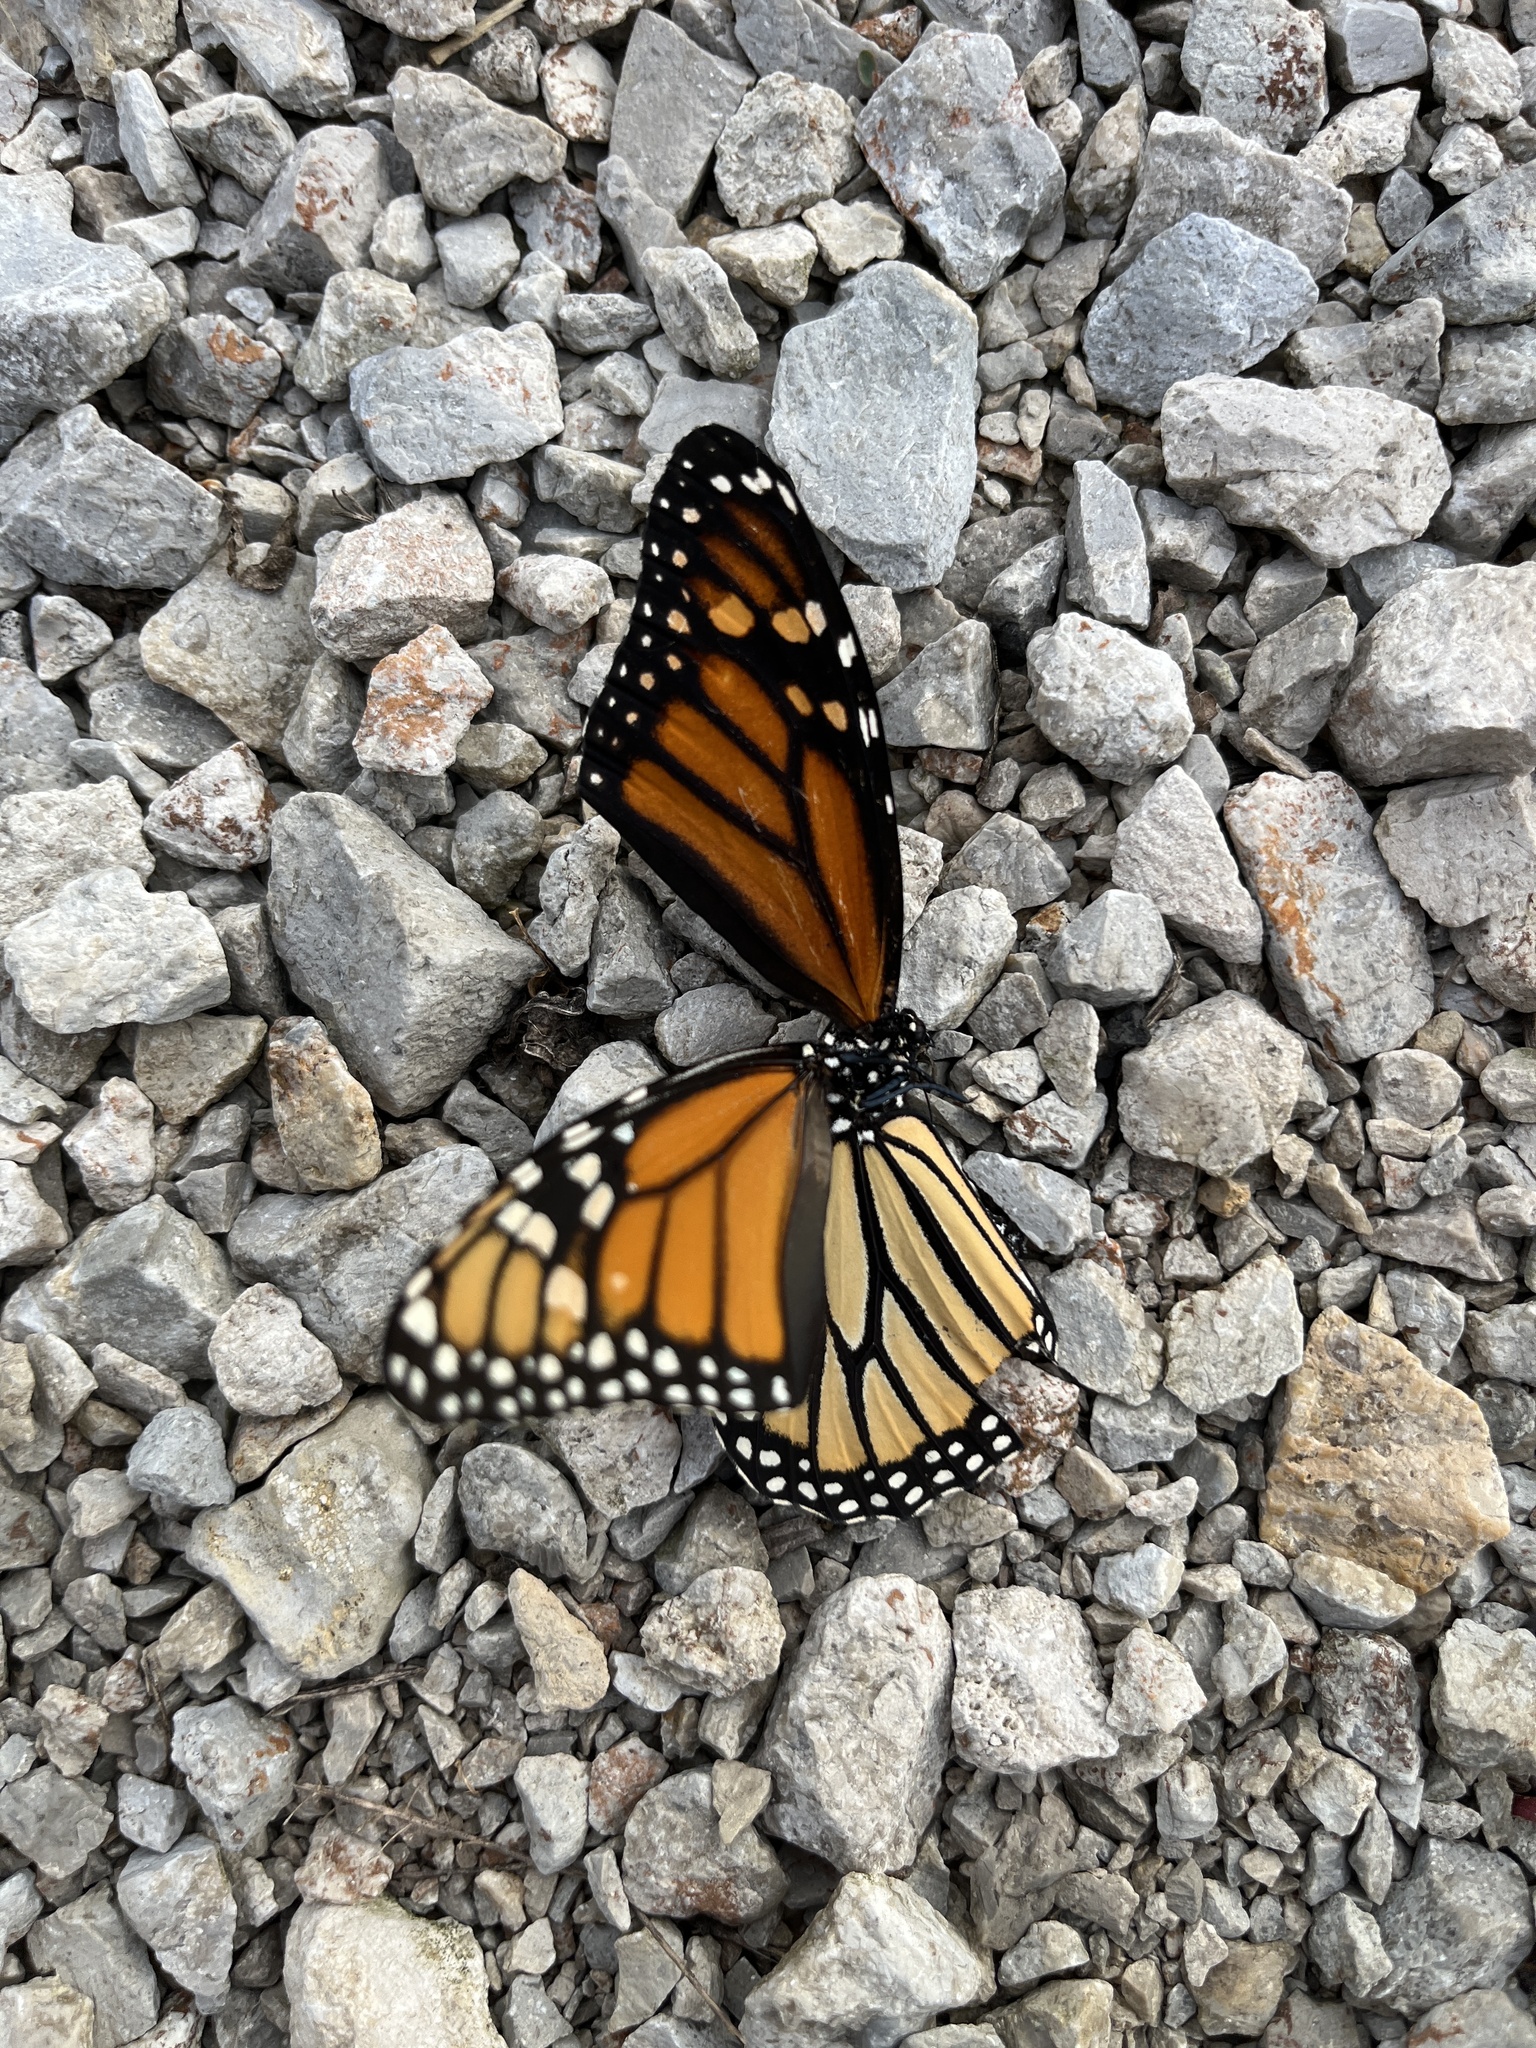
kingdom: Animalia
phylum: Arthropoda
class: Insecta
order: Lepidoptera
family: Nymphalidae
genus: Danaus
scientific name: Danaus plexippus
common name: Monarch
